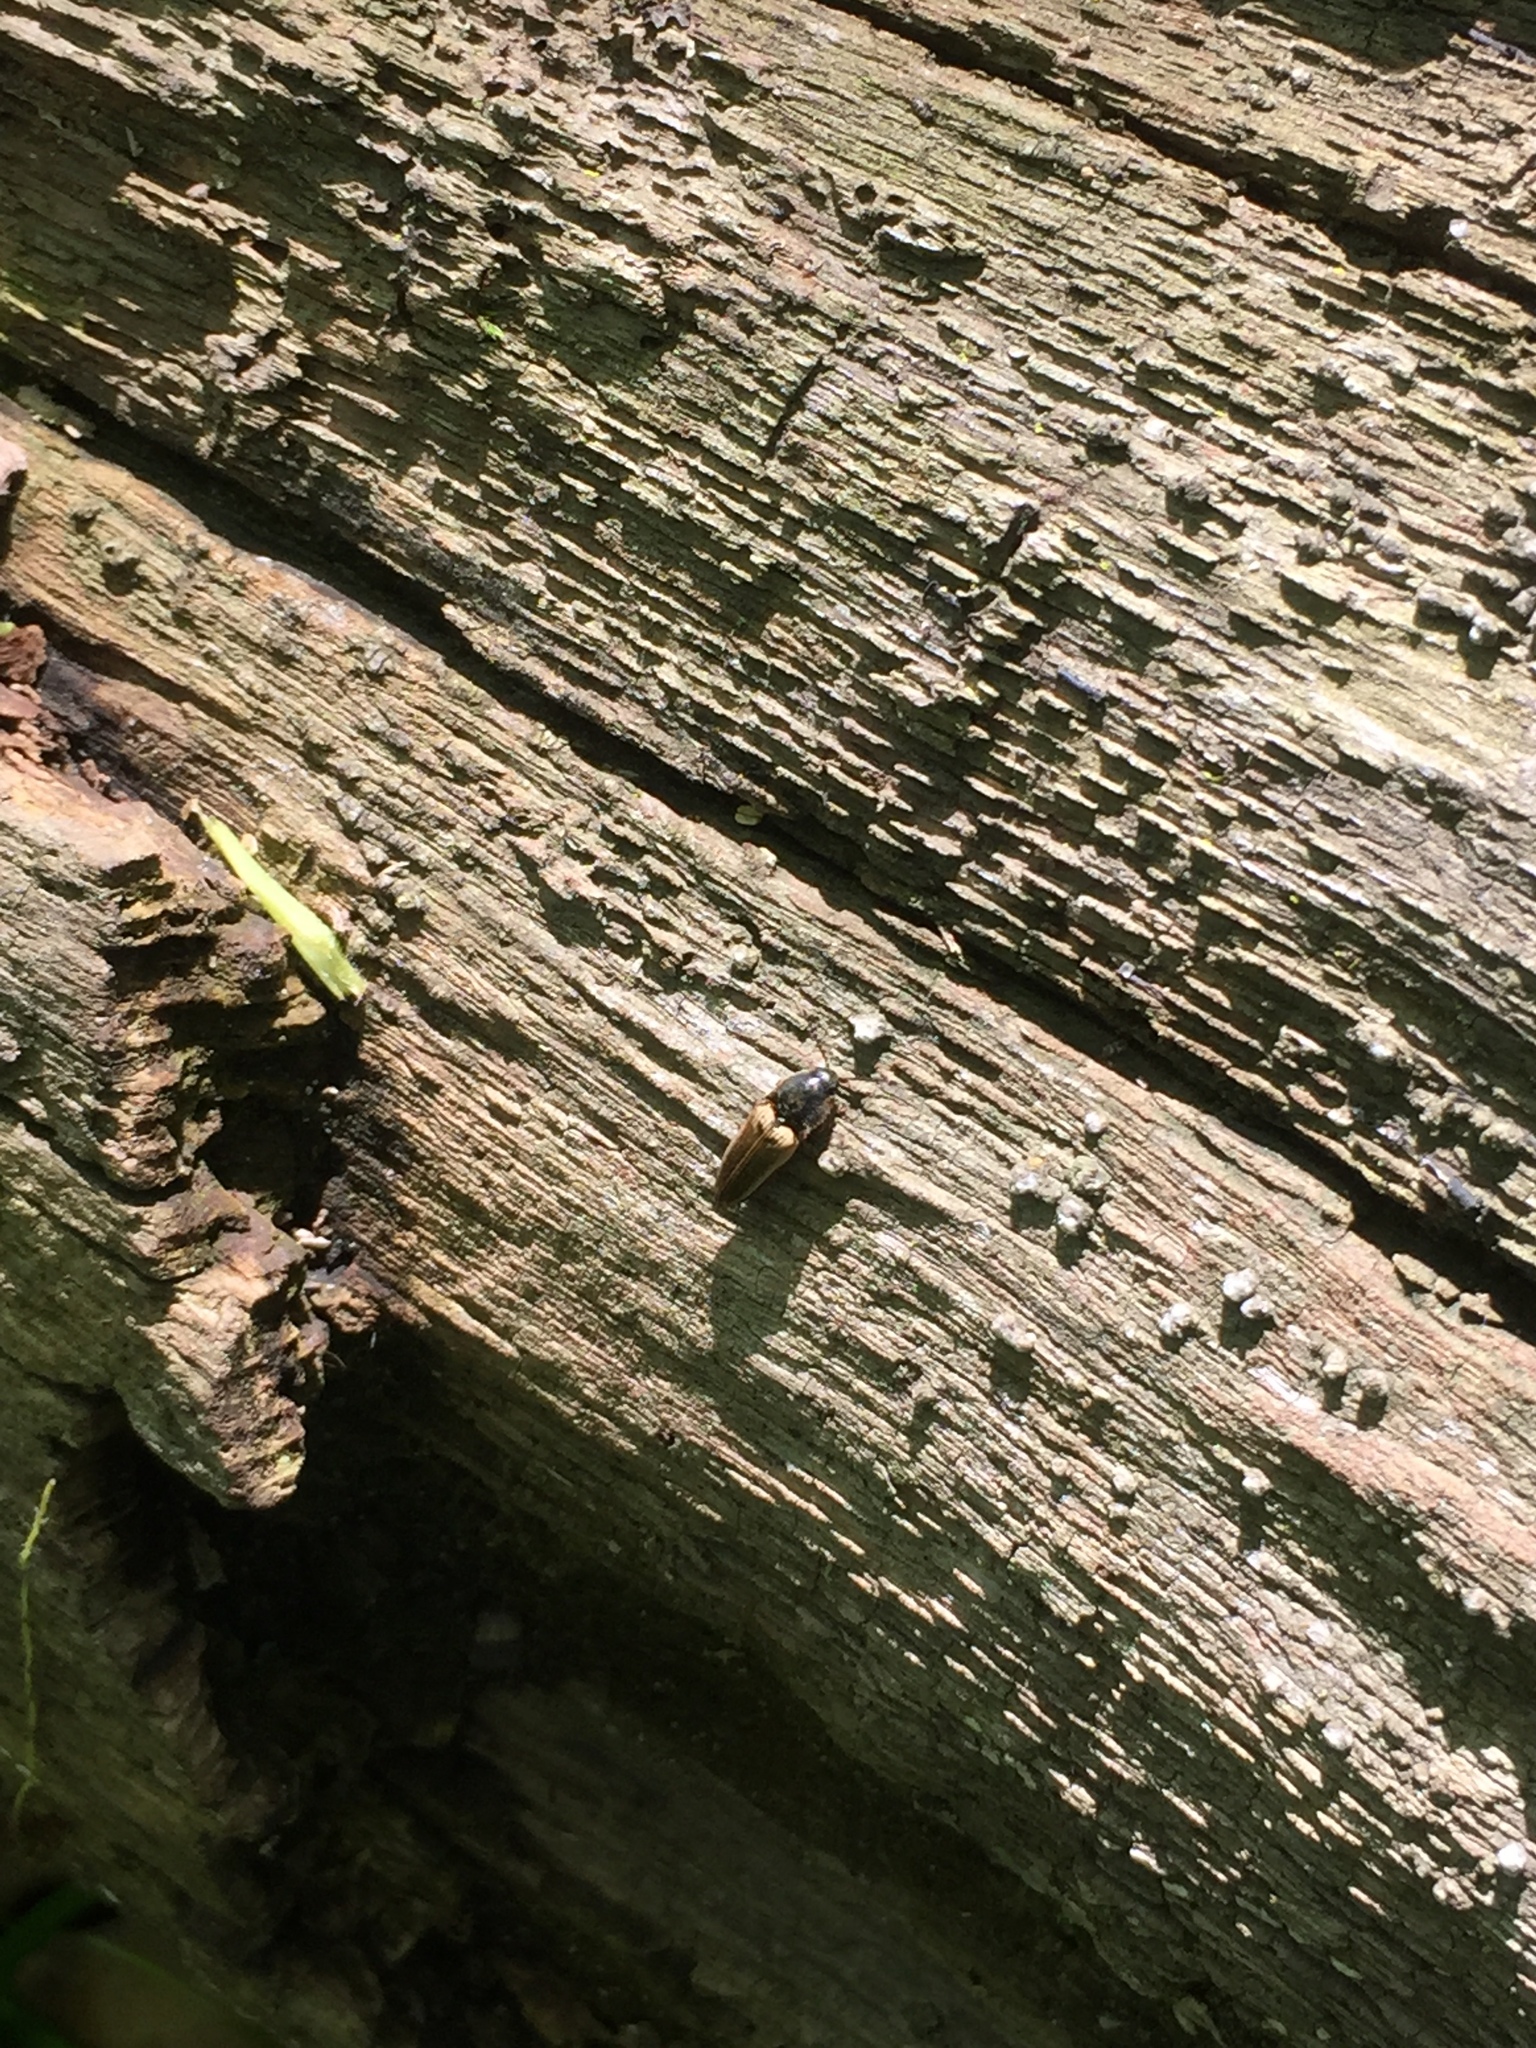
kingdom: Animalia
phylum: Arthropoda
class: Insecta
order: Coleoptera
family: Elateridae
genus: Ampedus
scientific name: Ampedus nigricollis
